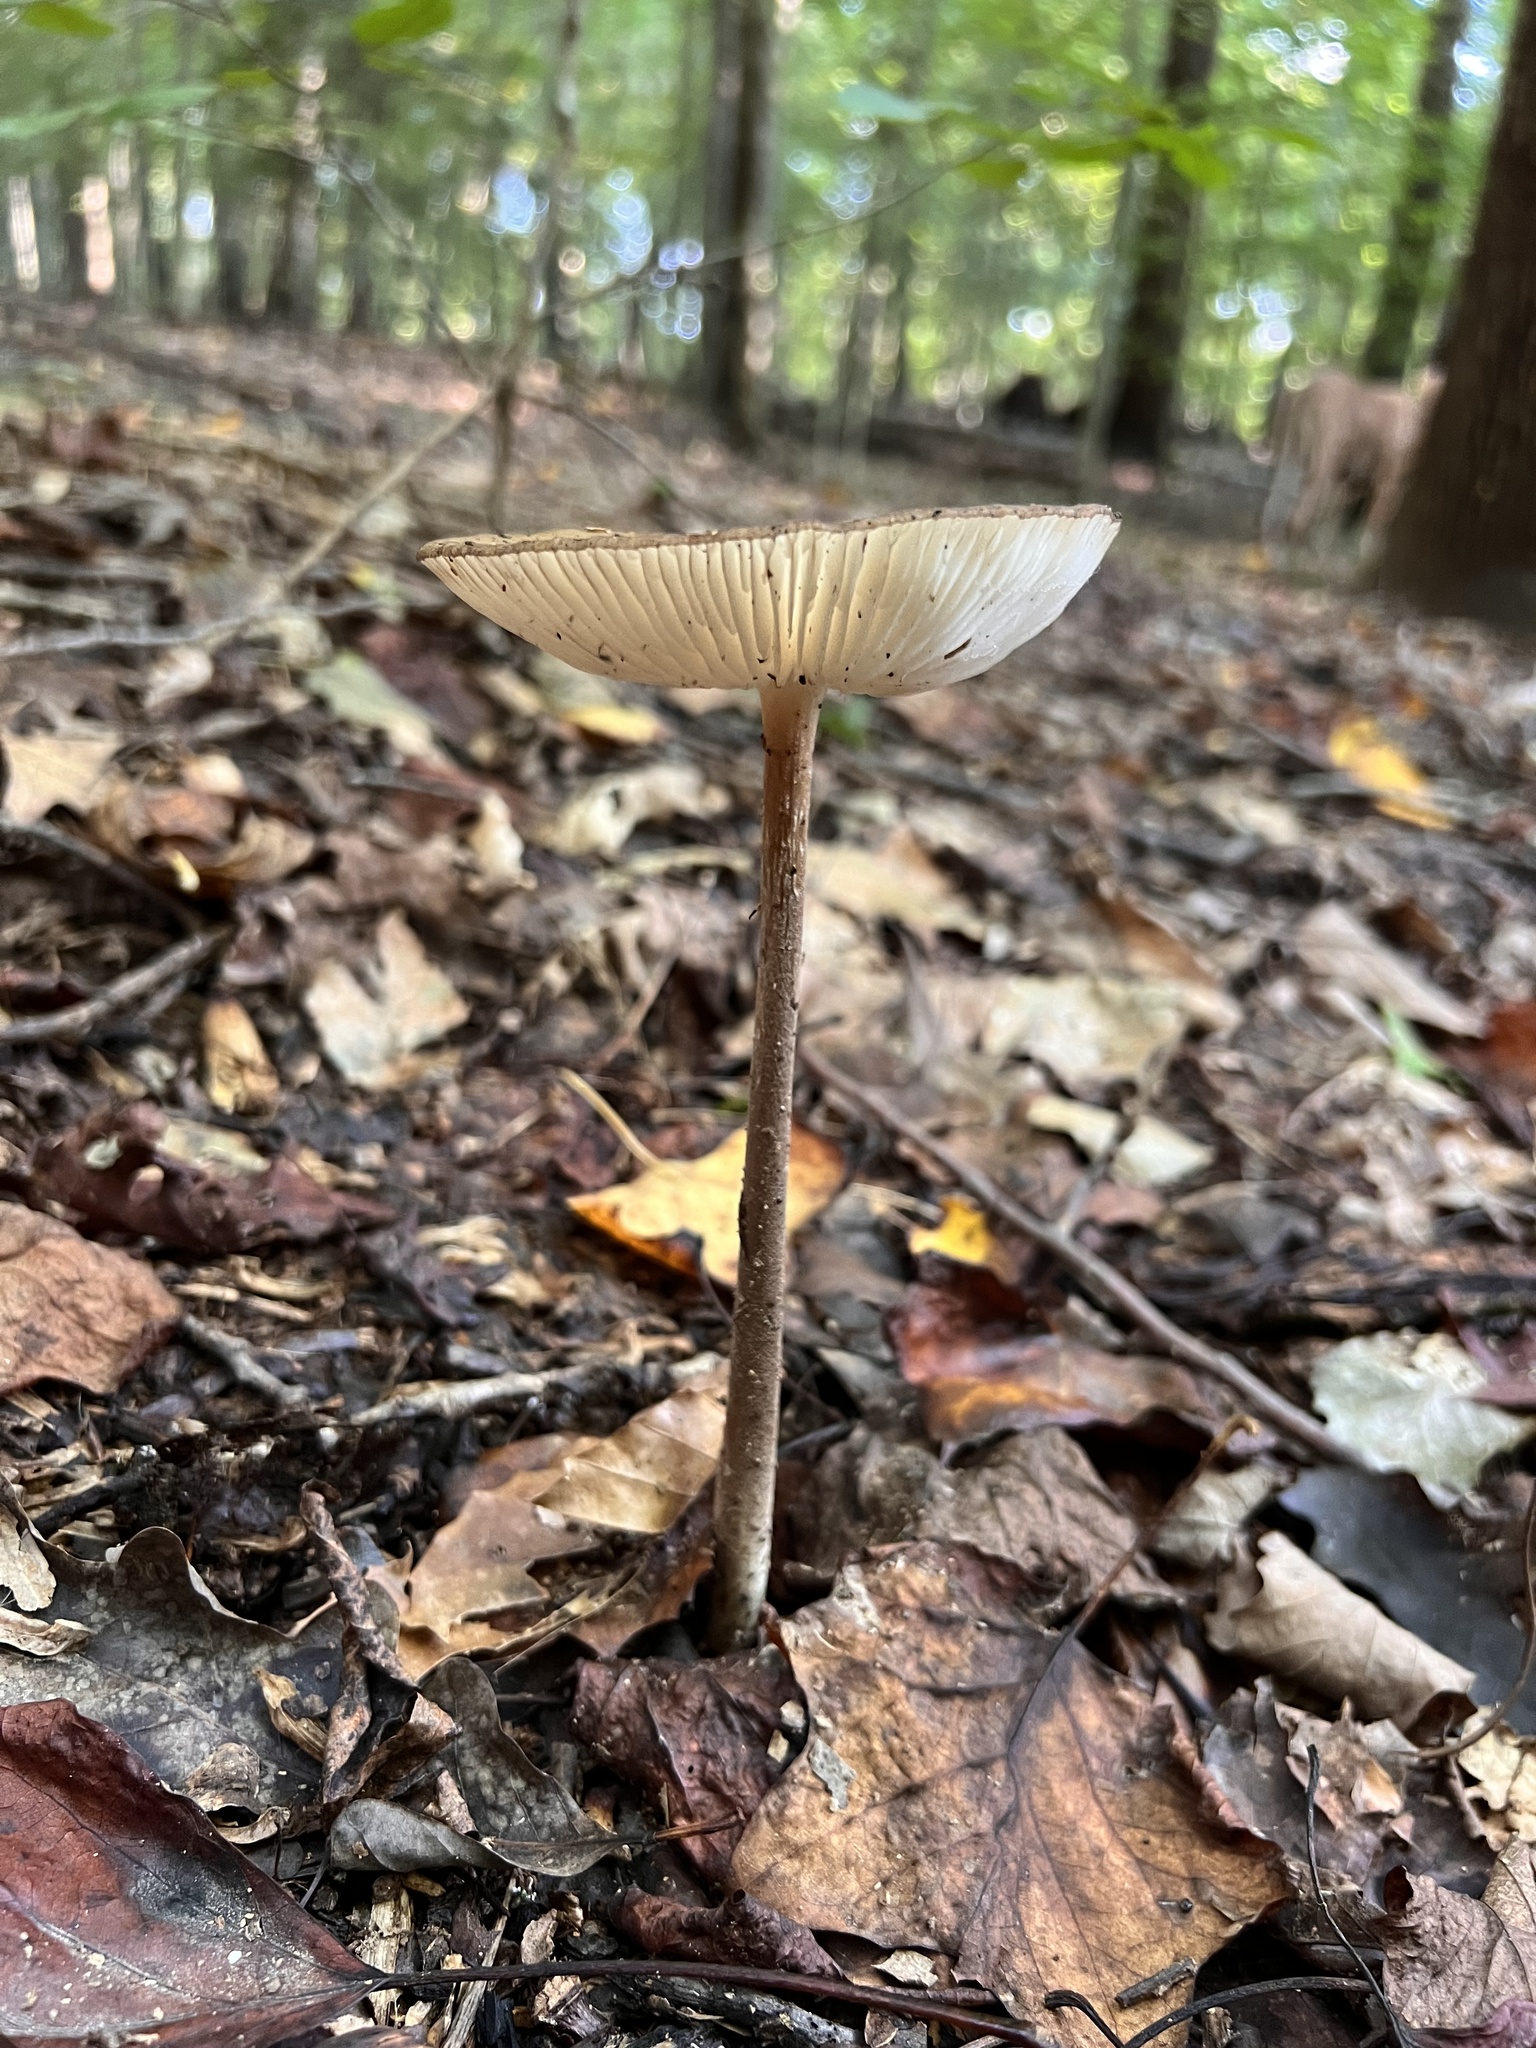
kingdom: Fungi
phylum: Basidiomycota
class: Agaricomycetes
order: Agaricales
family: Physalacriaceae
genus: Hymenopellis
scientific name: Hymenopellis furfuracea
